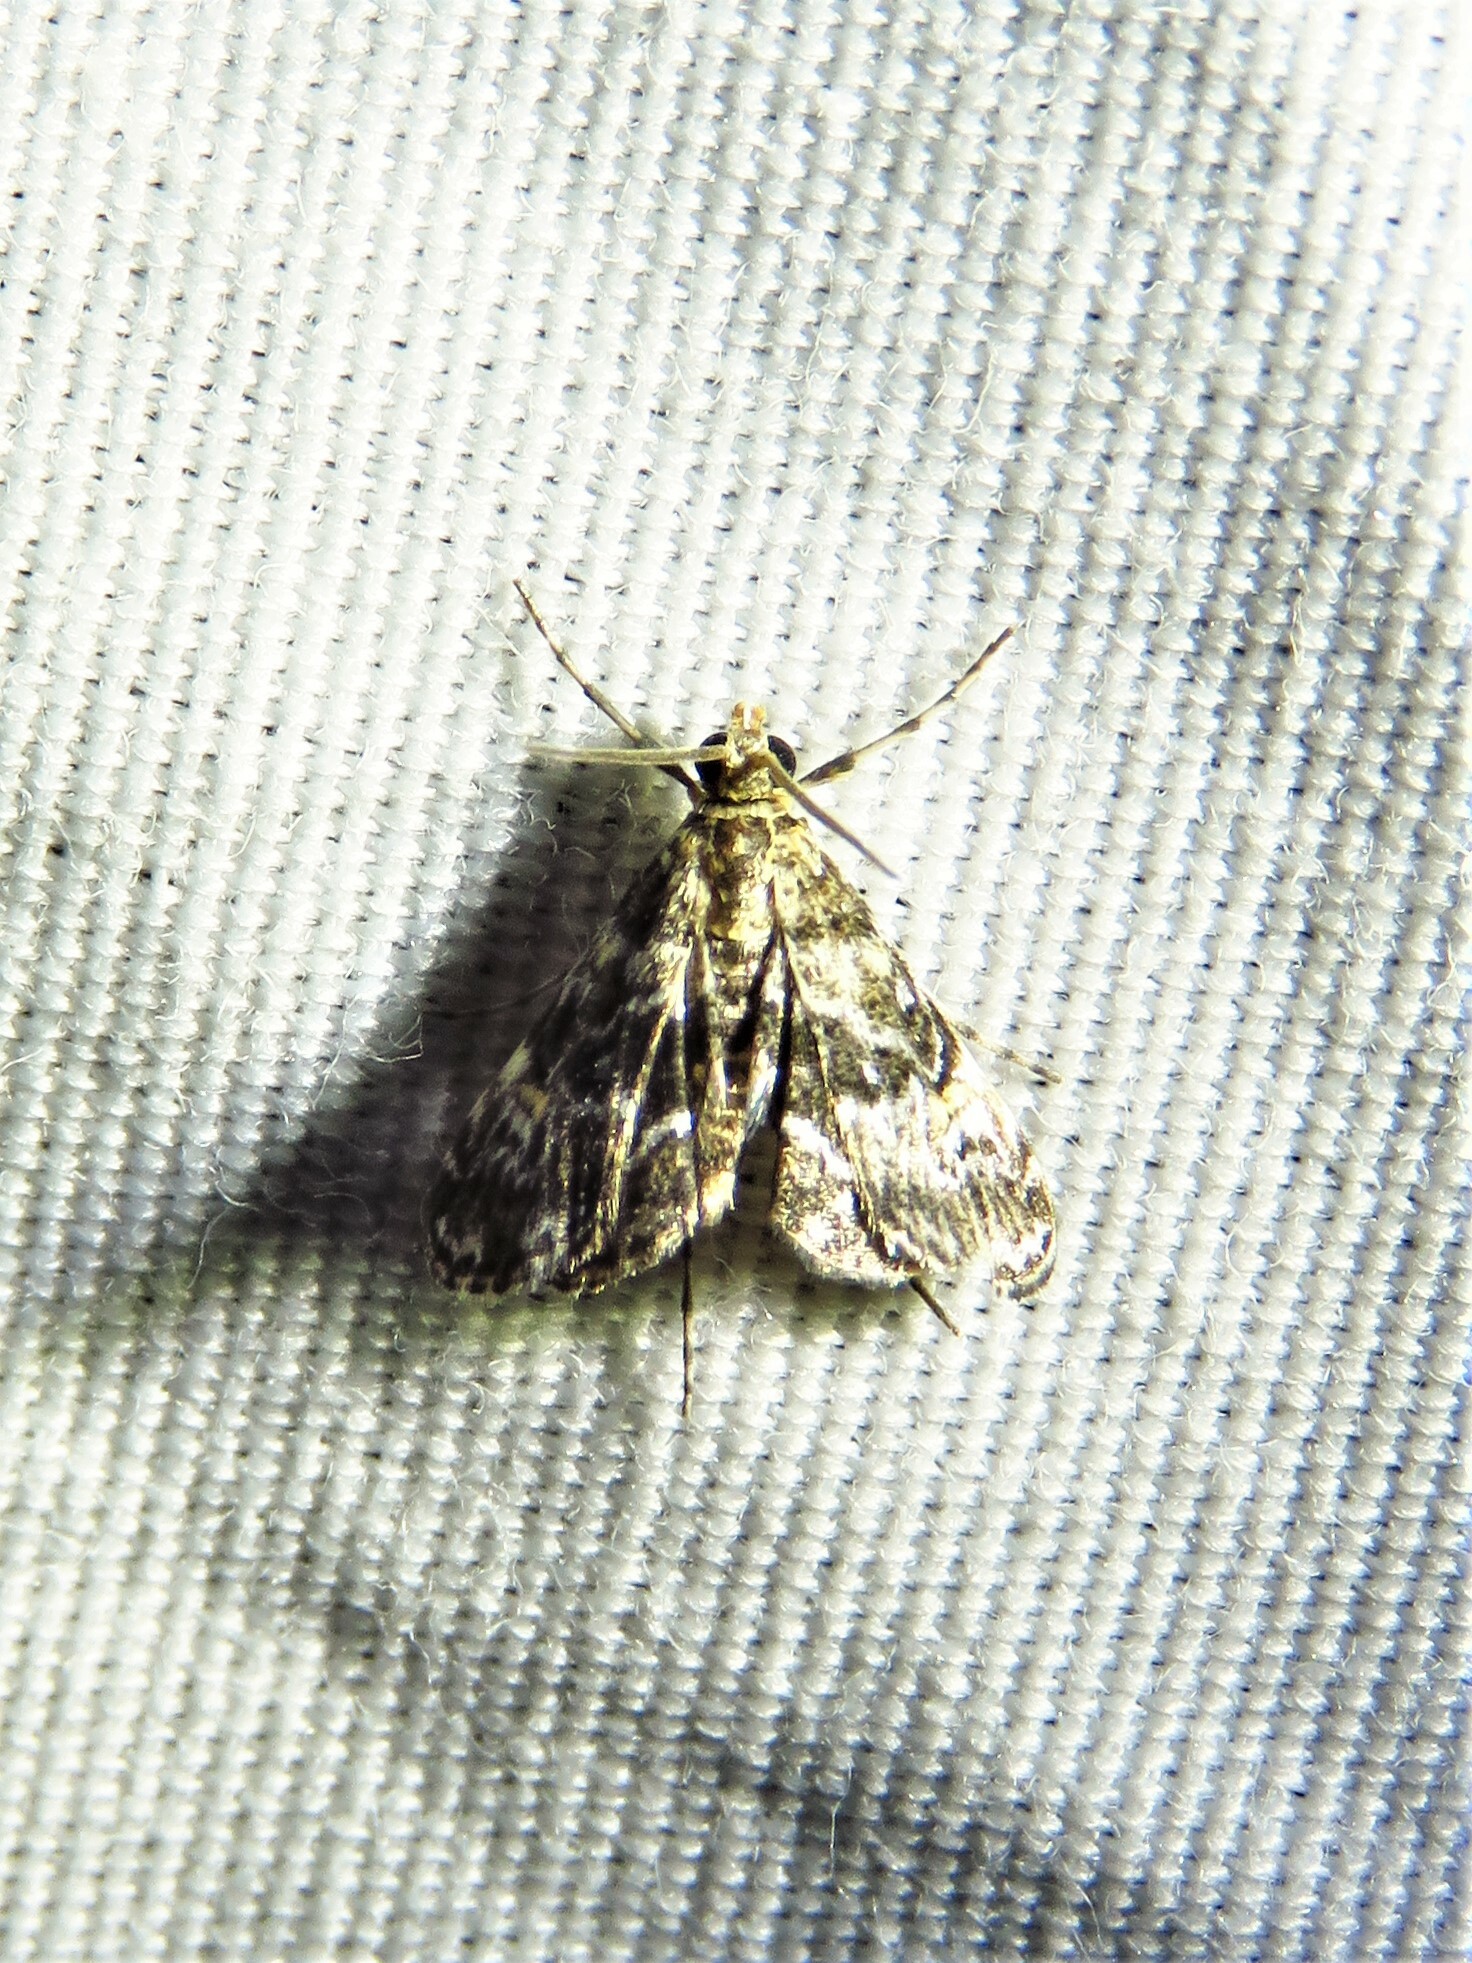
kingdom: Animalia
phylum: Arthropoda
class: Insecta
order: Lepidoptera
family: Crambidae
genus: Elophila
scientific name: Elophila obliteralis
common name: Waterlily leafcutter moth
